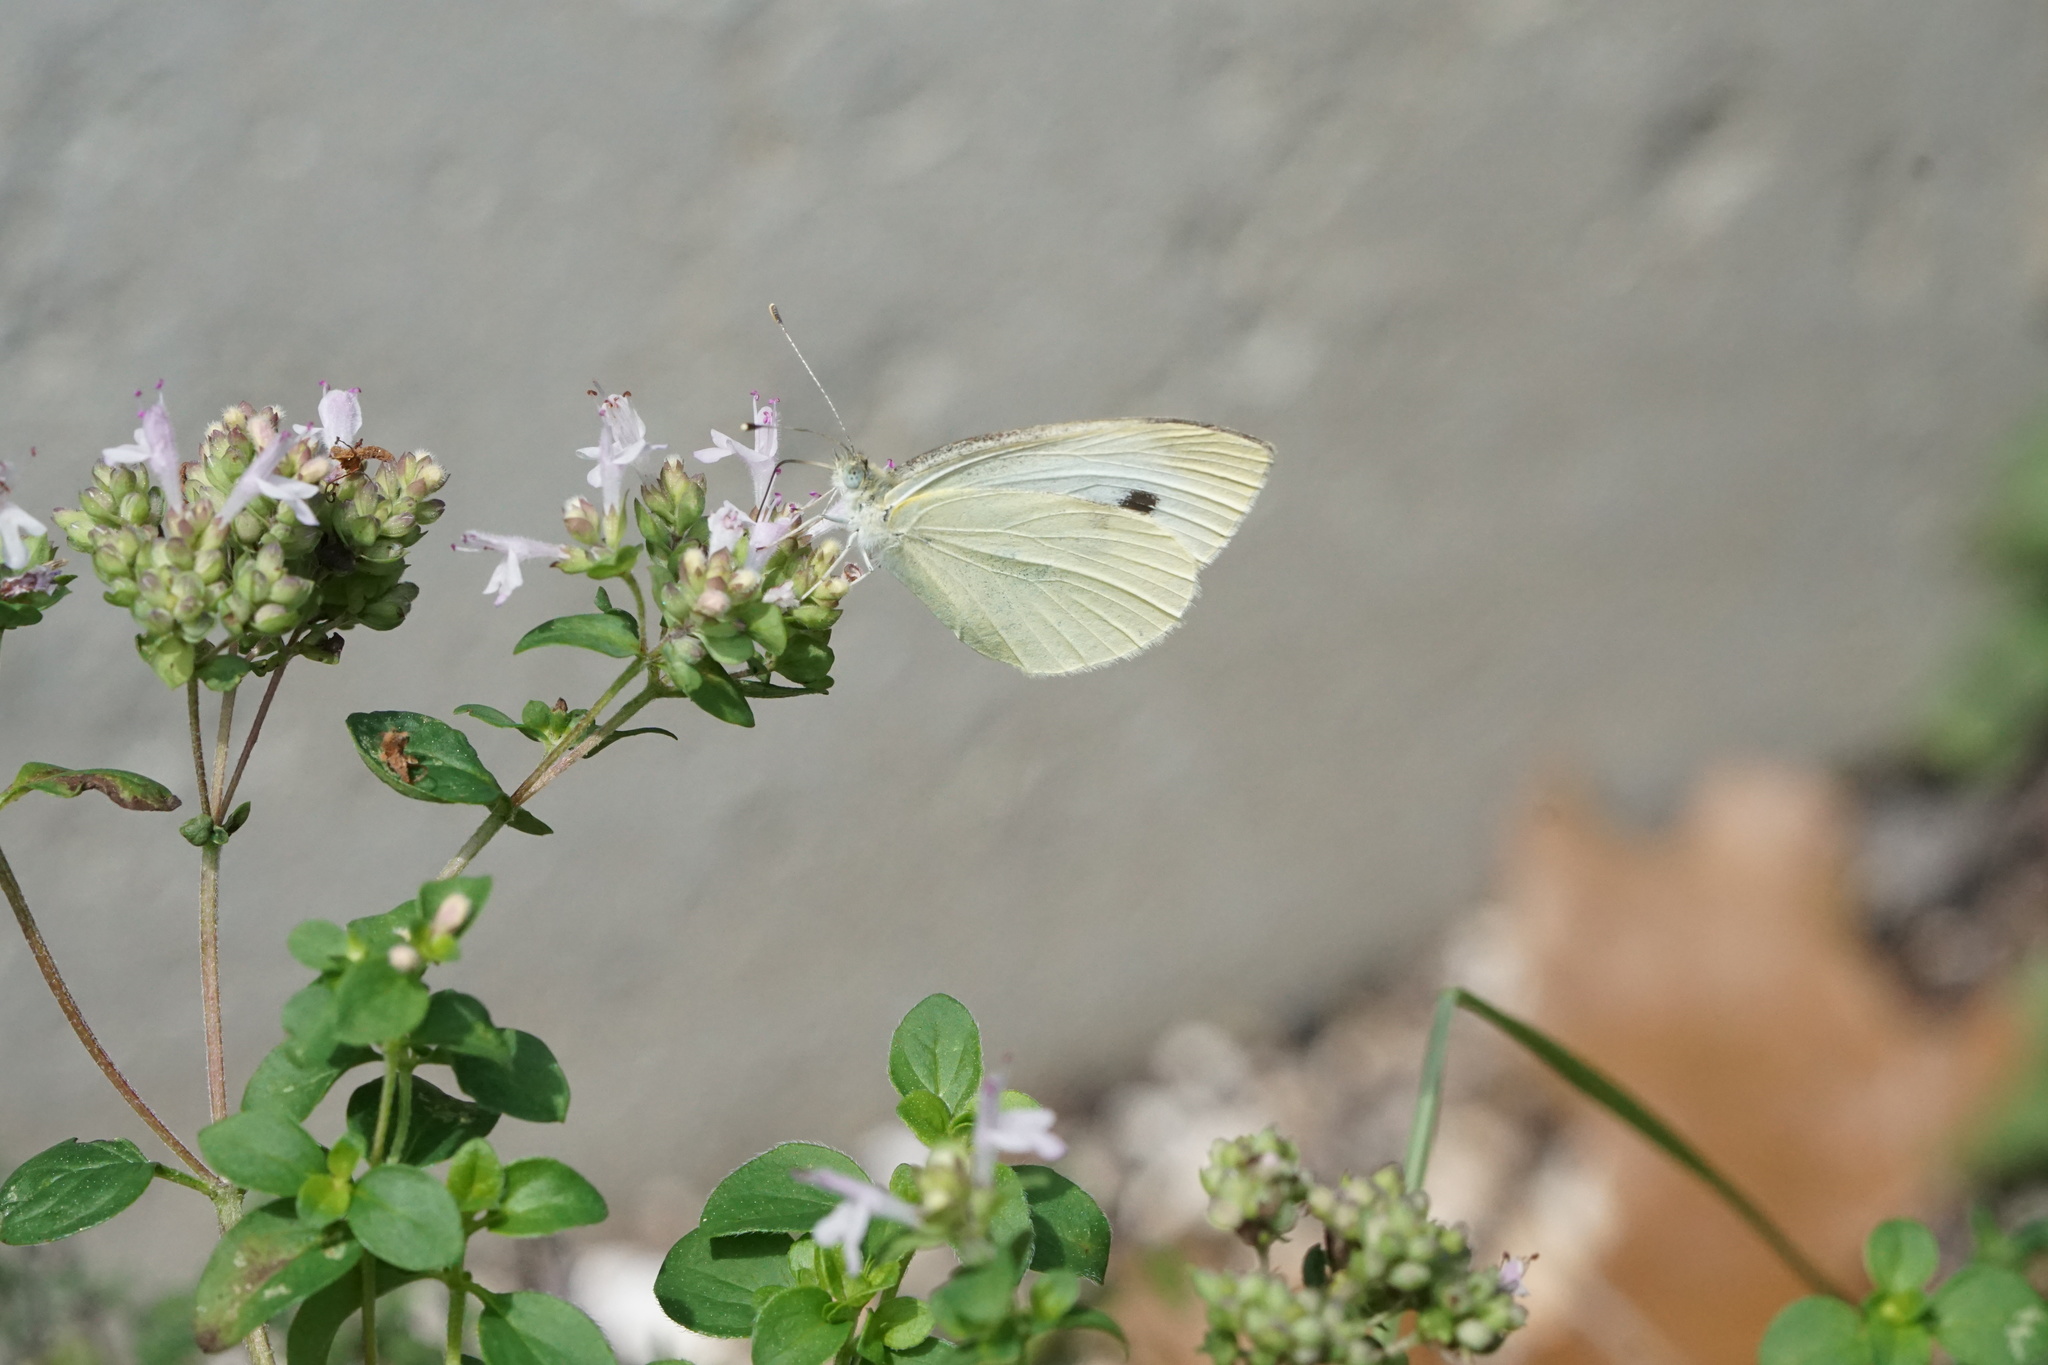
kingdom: Animalia
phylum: Arthropoda
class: Insecta
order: Lepidoptera
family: Pieridae
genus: Pieris
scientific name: Pieris rapae
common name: Small white
